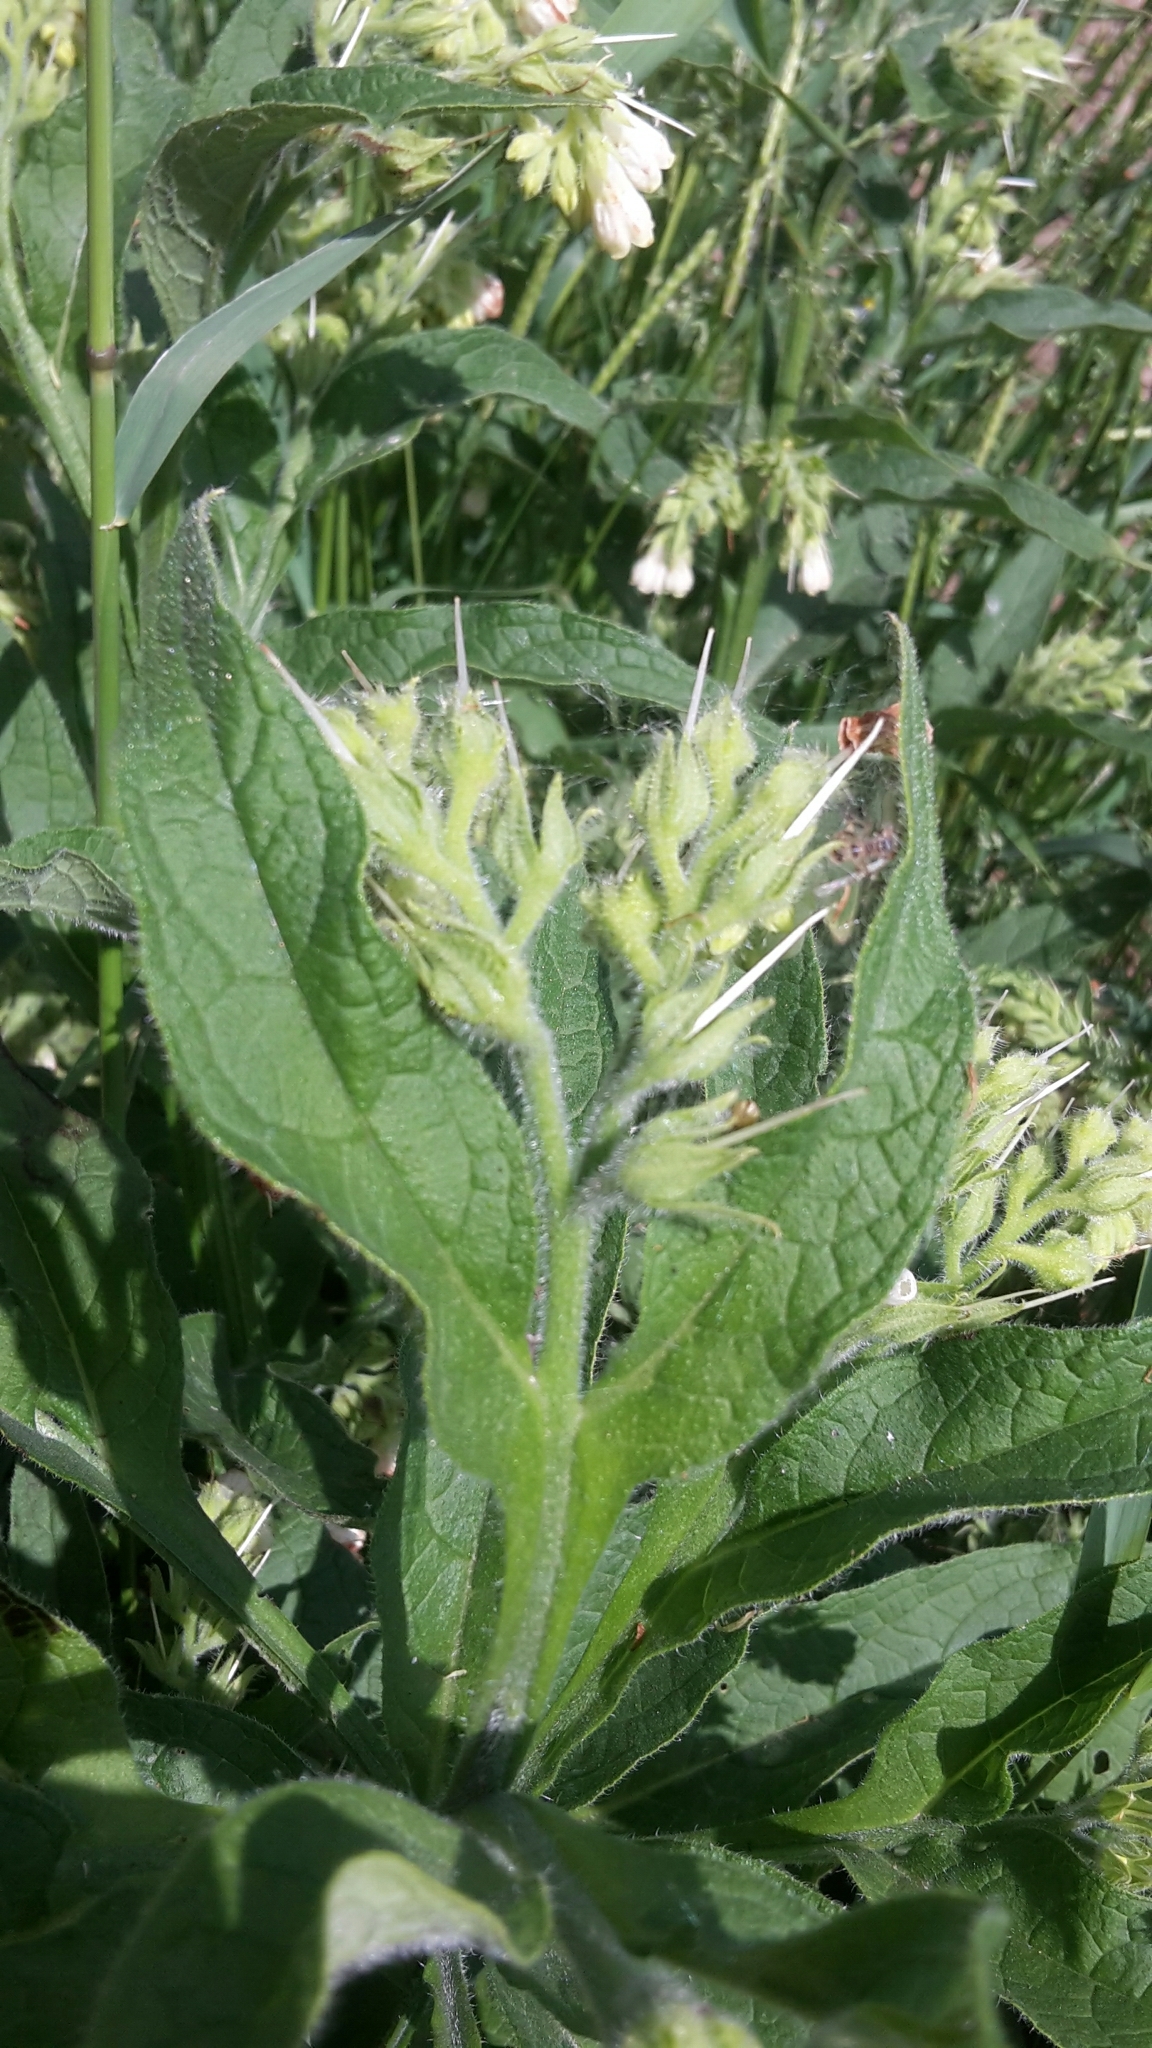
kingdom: Plantae
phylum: Tracheophyta
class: Magnoliopsida
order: Boraginales
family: Boraginaceae
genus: Symphytum
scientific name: Symphytum officinale
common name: Common comfrey
